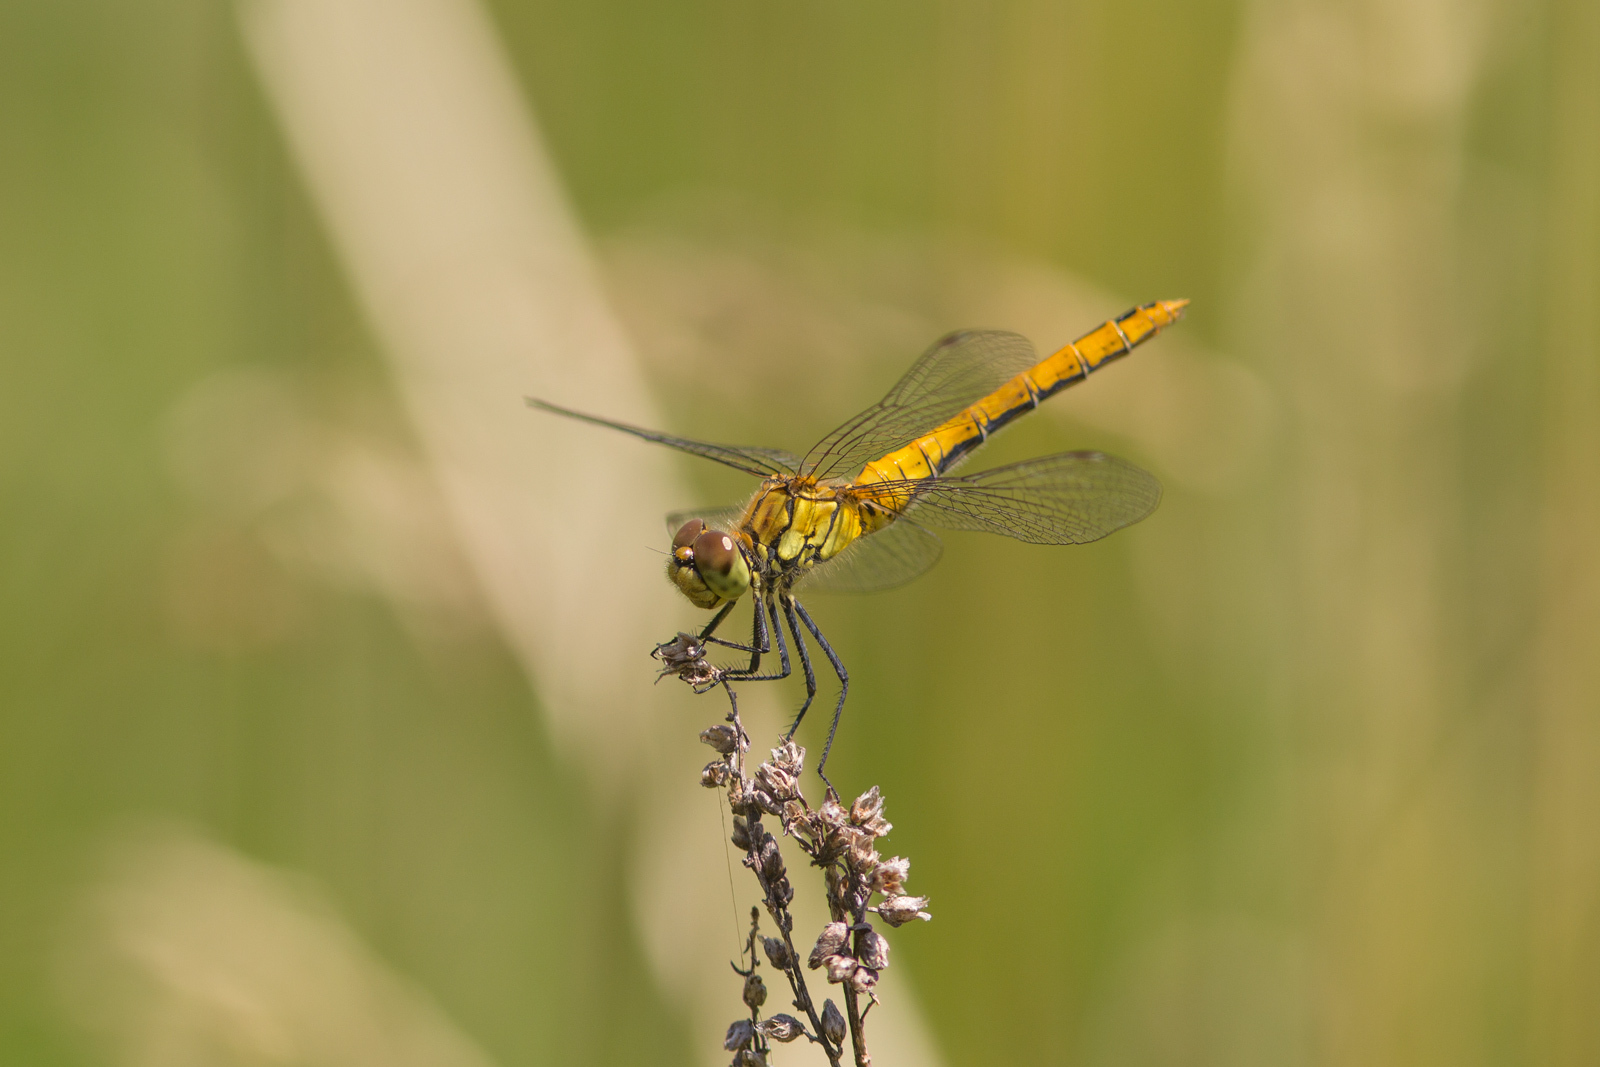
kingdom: Animalia
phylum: Arthropoda
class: Insecta
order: Odonata
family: Libellulidae
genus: Sympetrum
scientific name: Sympetrum sanguineum
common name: Ruddy darter
